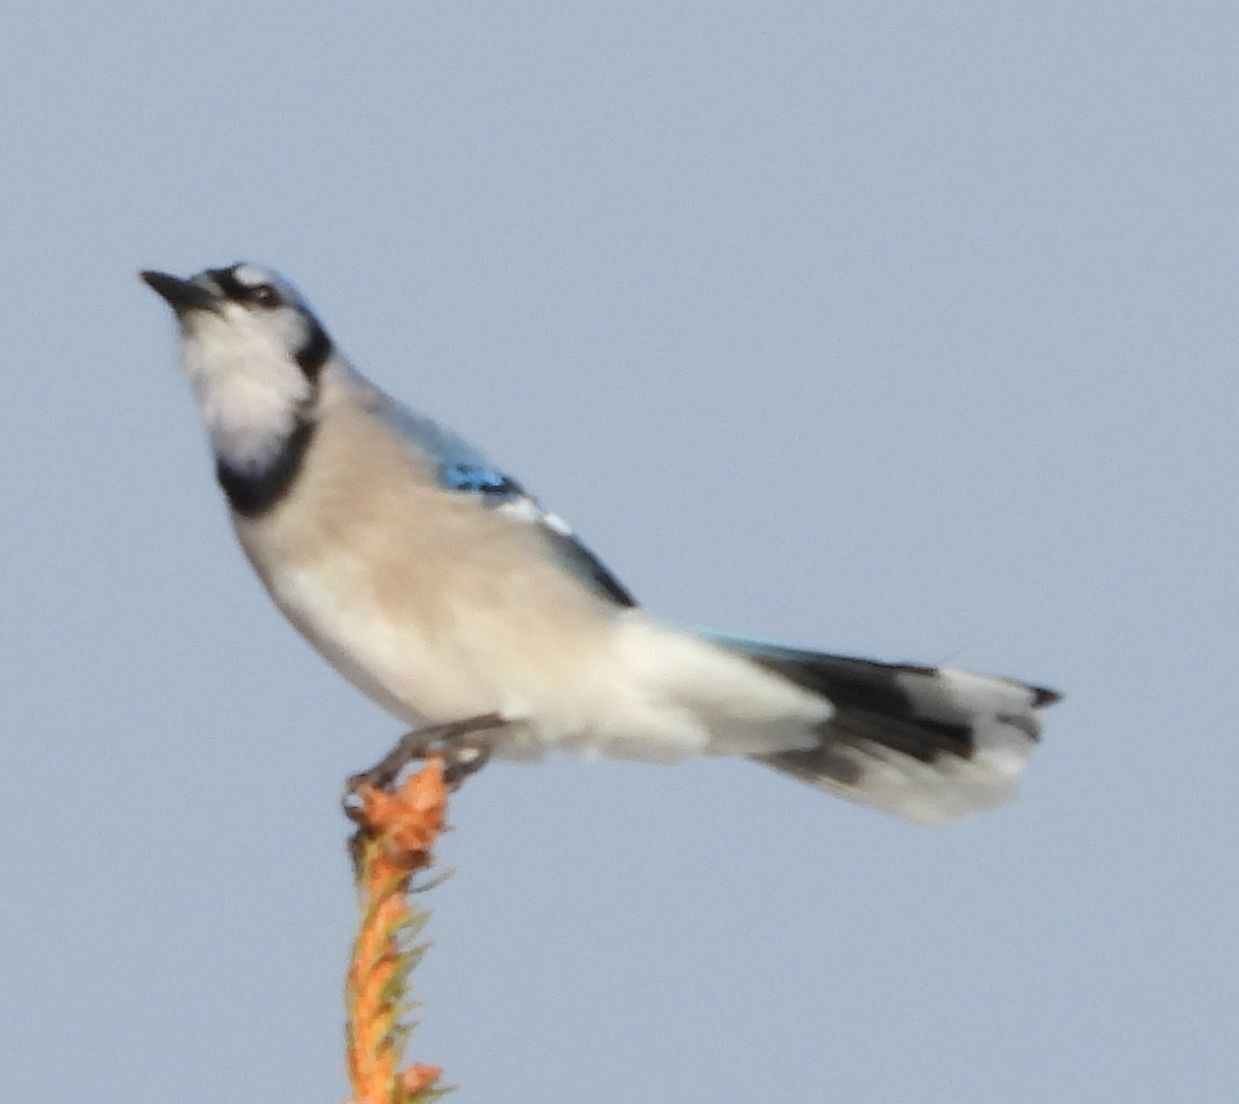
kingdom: Animalia
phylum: Chordata
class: Aves
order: Passeriformes
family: Corvidae
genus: Cyanocitta
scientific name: Cyanocitta cristata
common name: Blue jay
